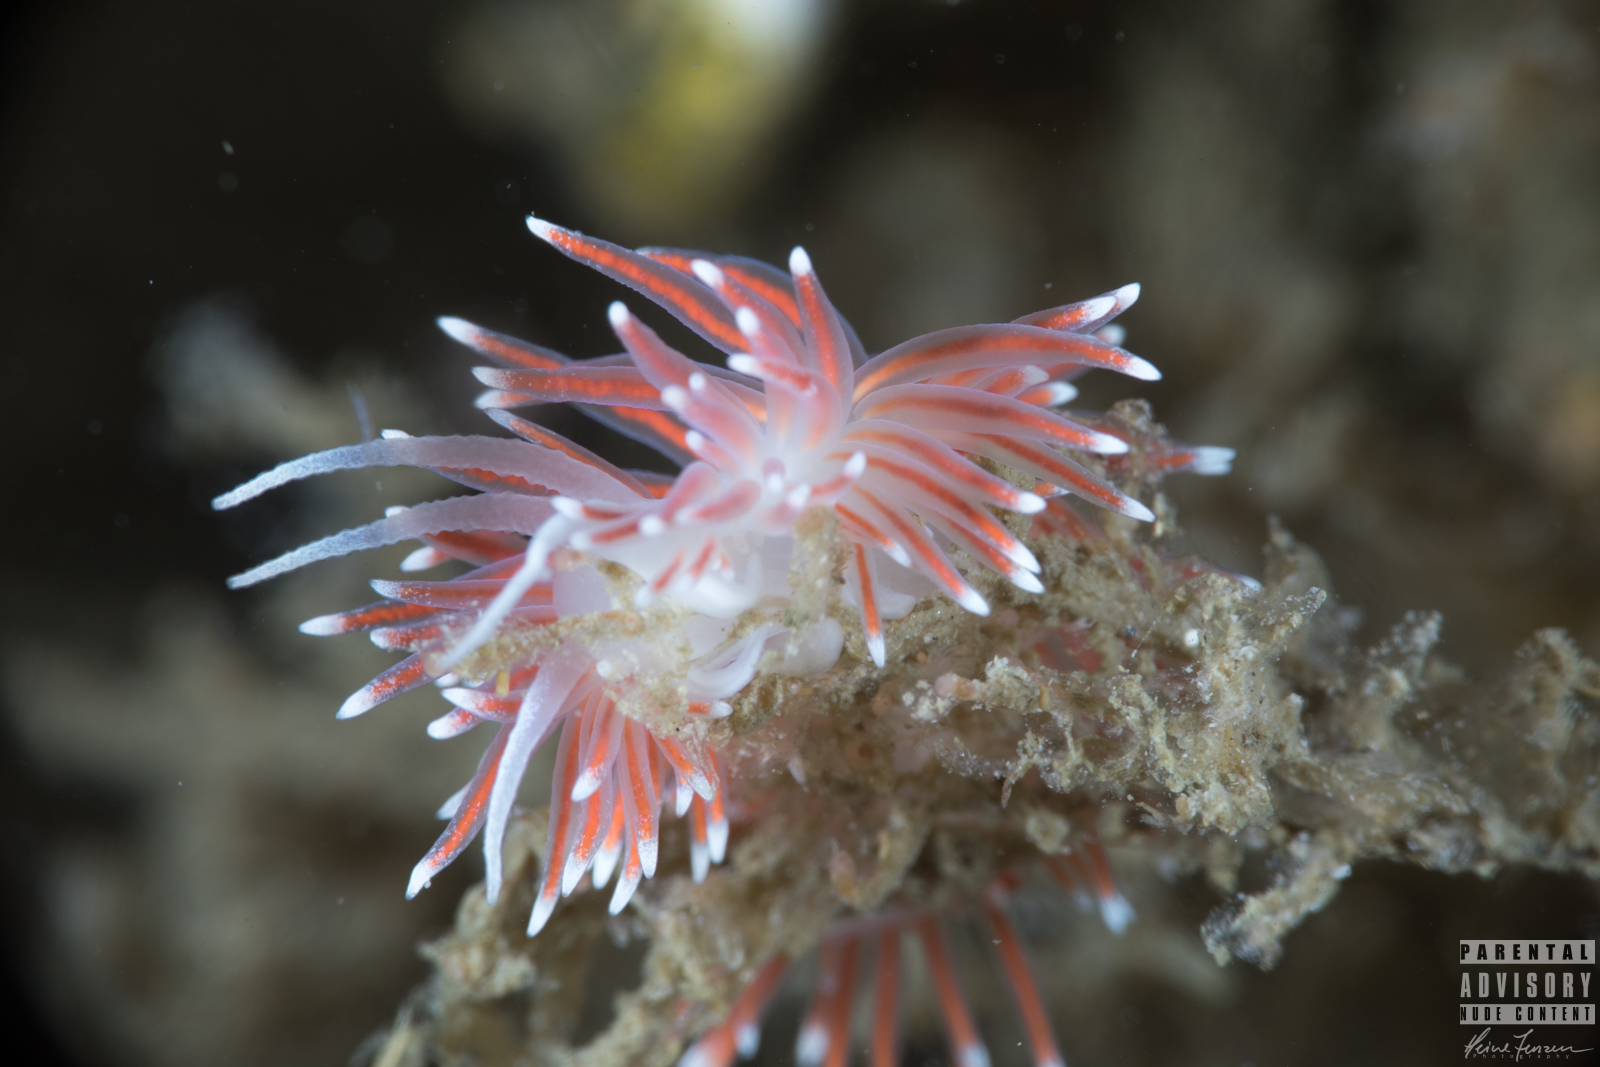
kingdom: Animalia
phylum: Mollusca
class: Gastropoda
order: Nudibranchia
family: Flabellinidae
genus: Carronella
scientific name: Carronella pellucida
